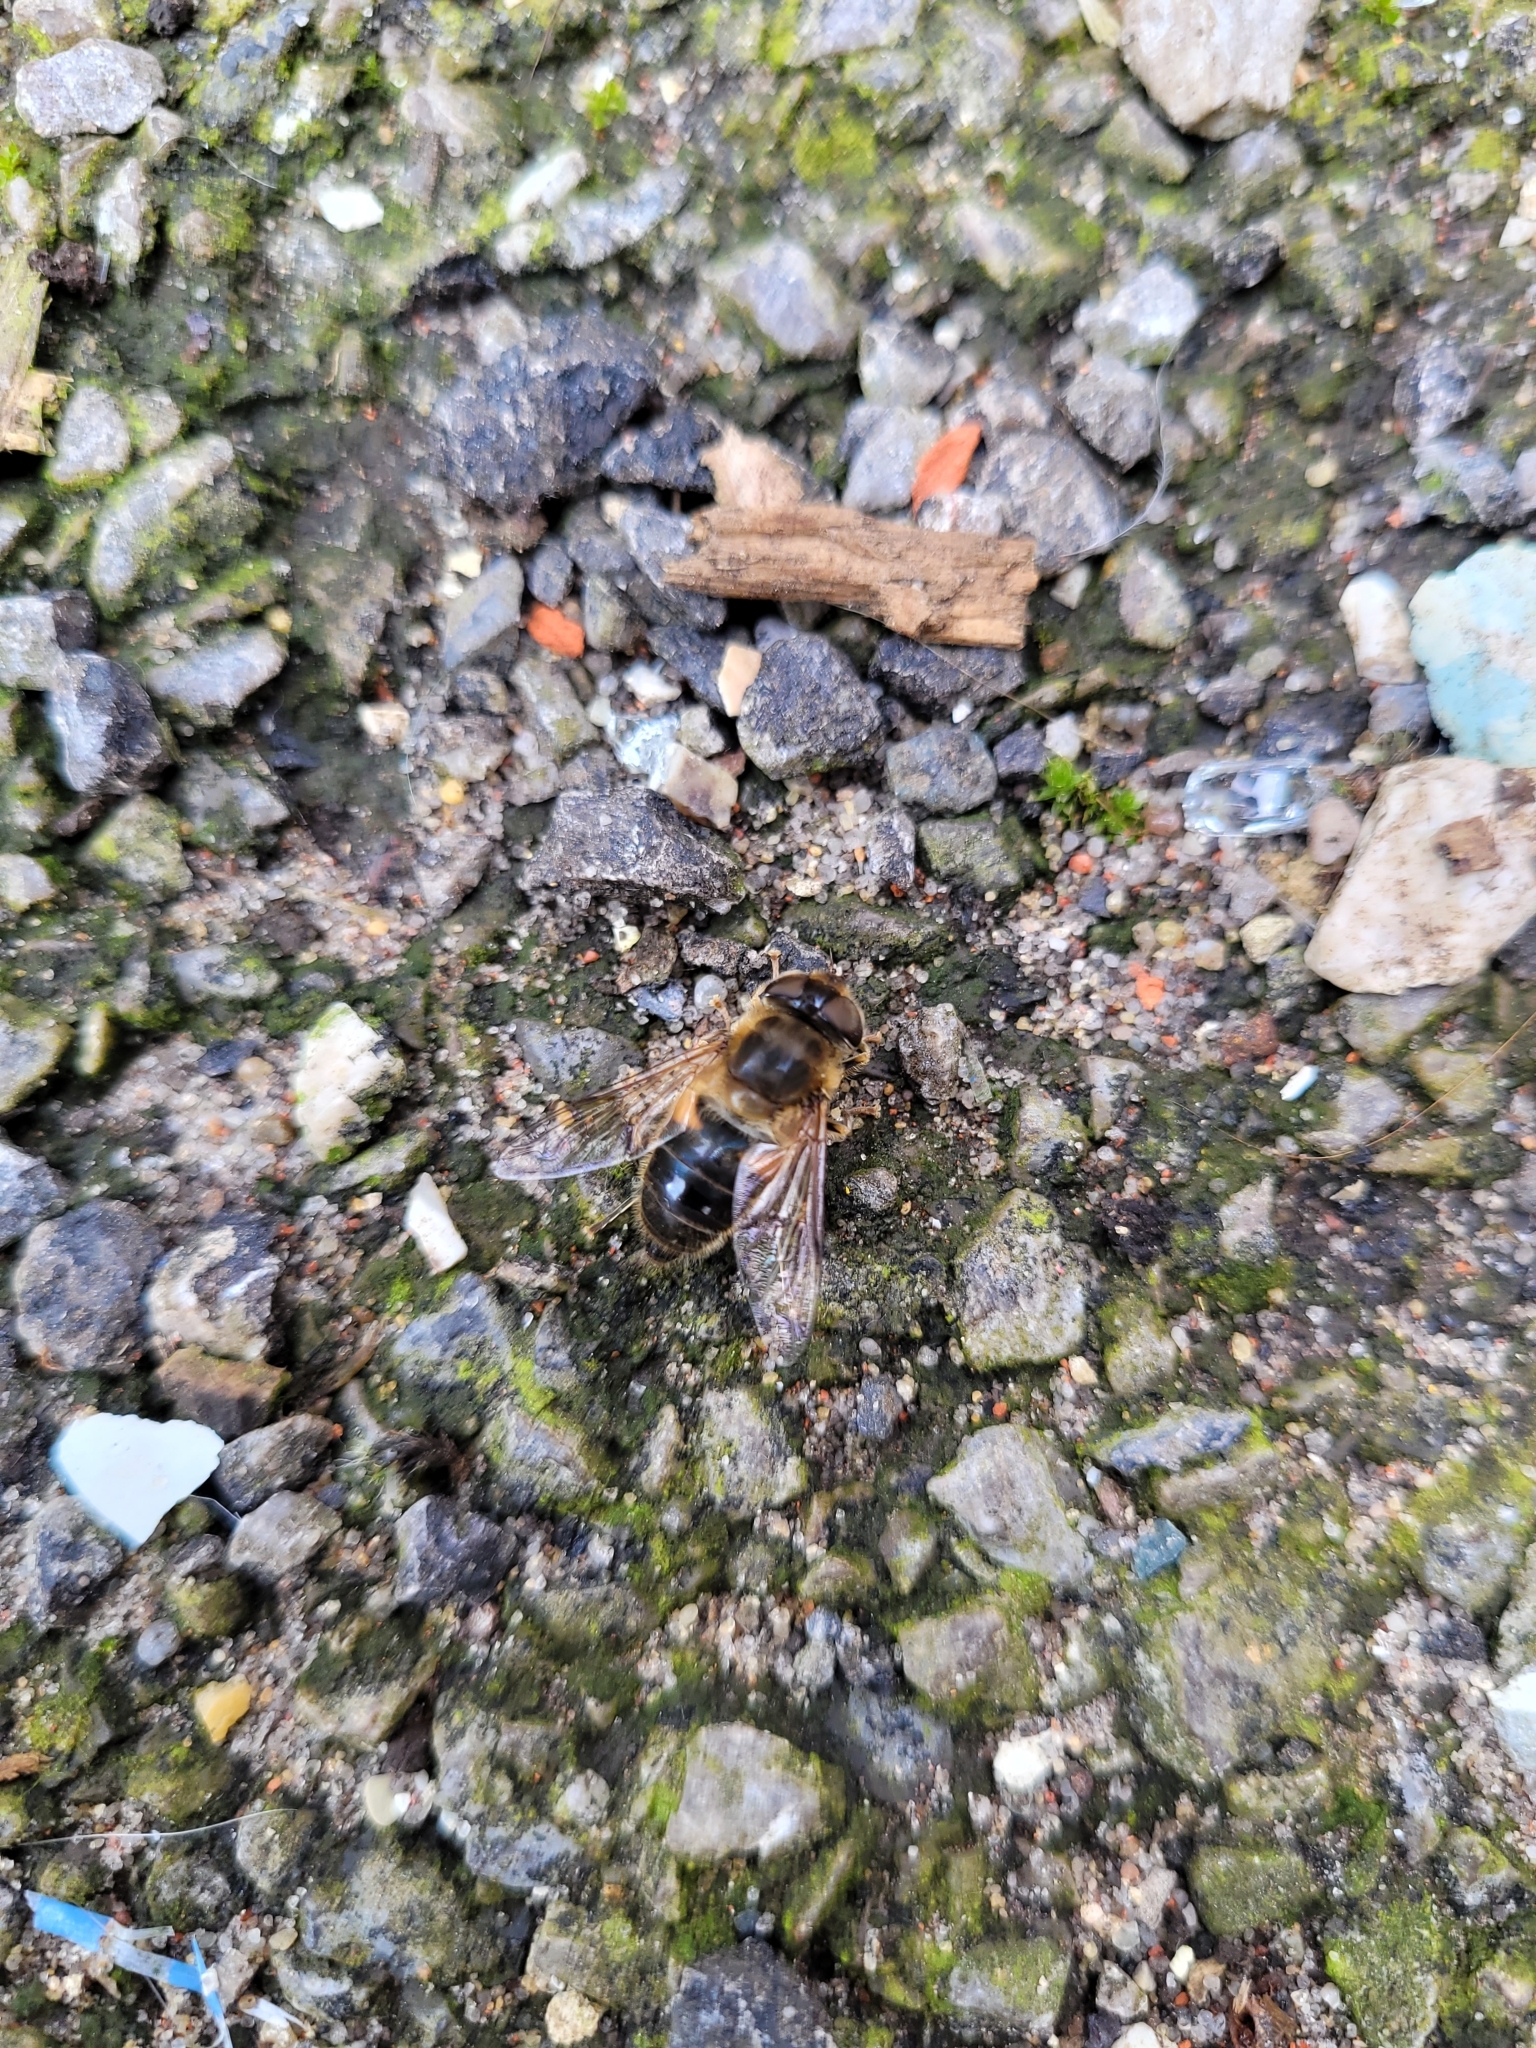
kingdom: Animalia
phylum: Arthropoda
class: Insecta
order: Diptera
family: Syrphidae
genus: Eristalis
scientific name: Eristalis pertinax
